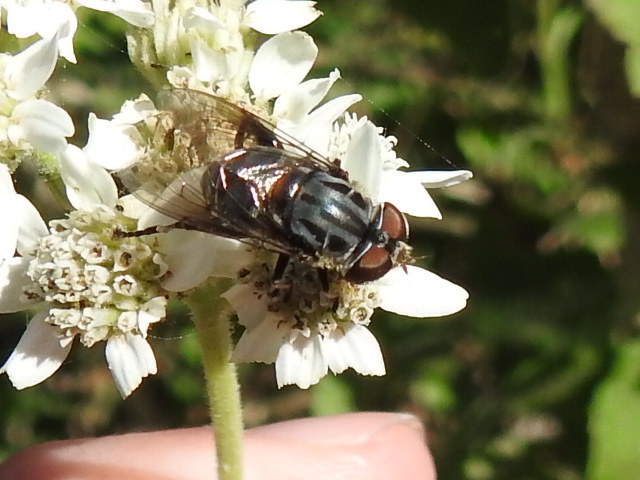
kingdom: Animalia
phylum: Arthropoda
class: Insecta
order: Diptera
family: Syrphidae
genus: Palpada
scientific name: Palpada furcata
